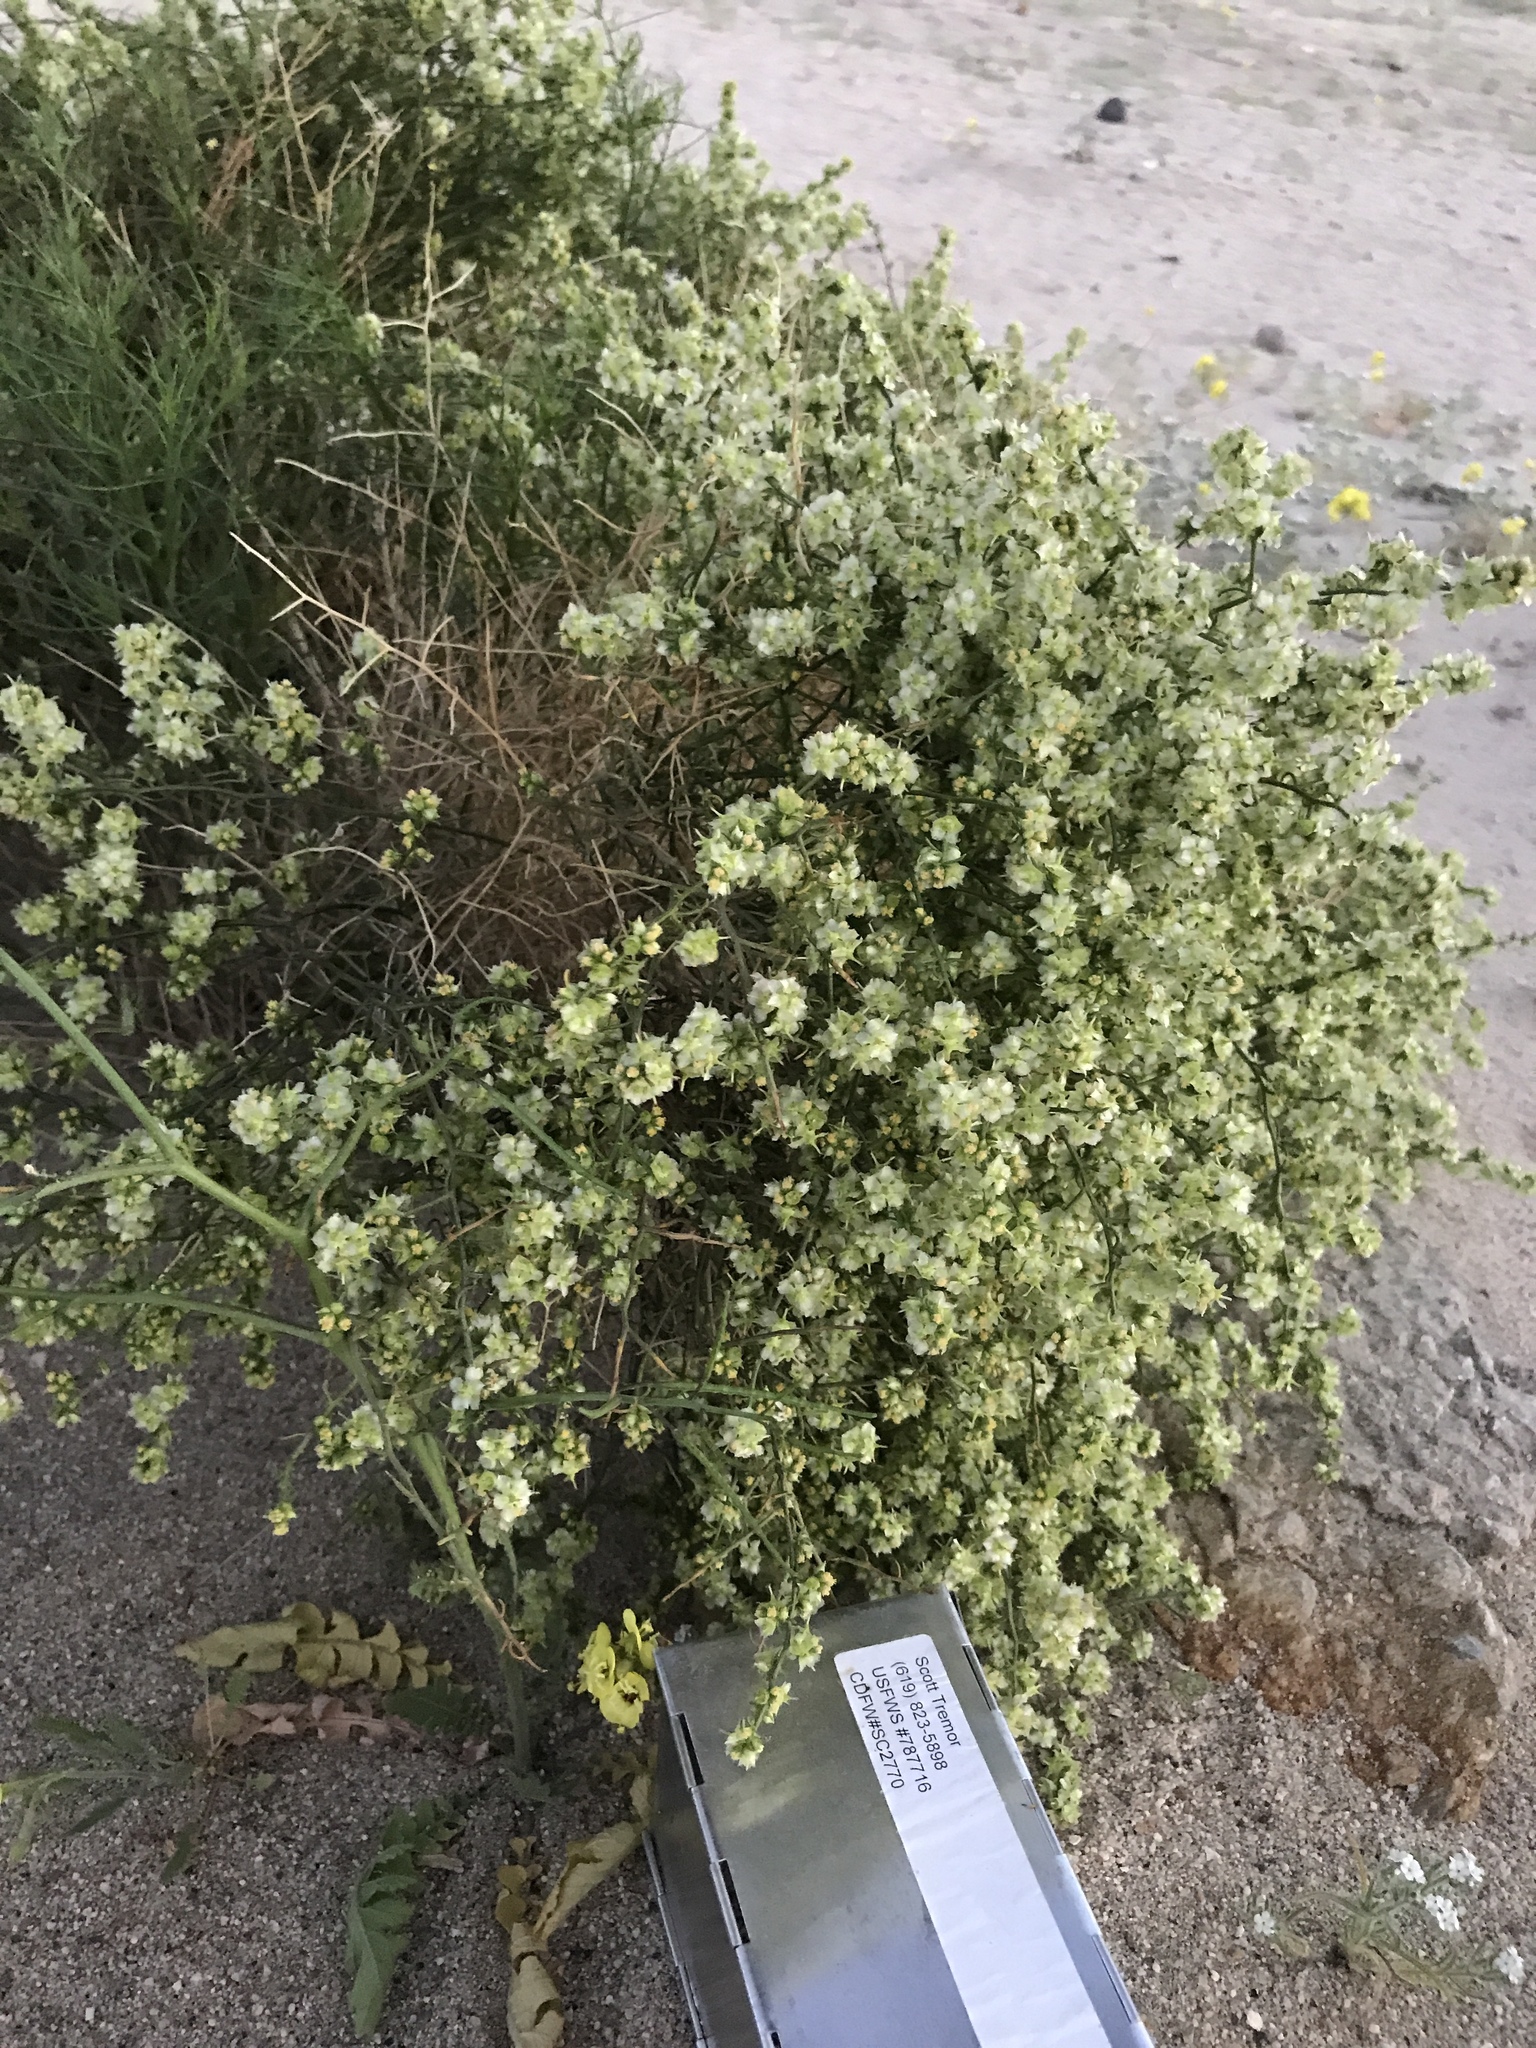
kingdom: Plantae
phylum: Tracheophyta
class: Magnoliopsida
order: Asterales
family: Asteraceae
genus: Ambrosia
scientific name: Ambrosia salsola
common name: Burrobrush
